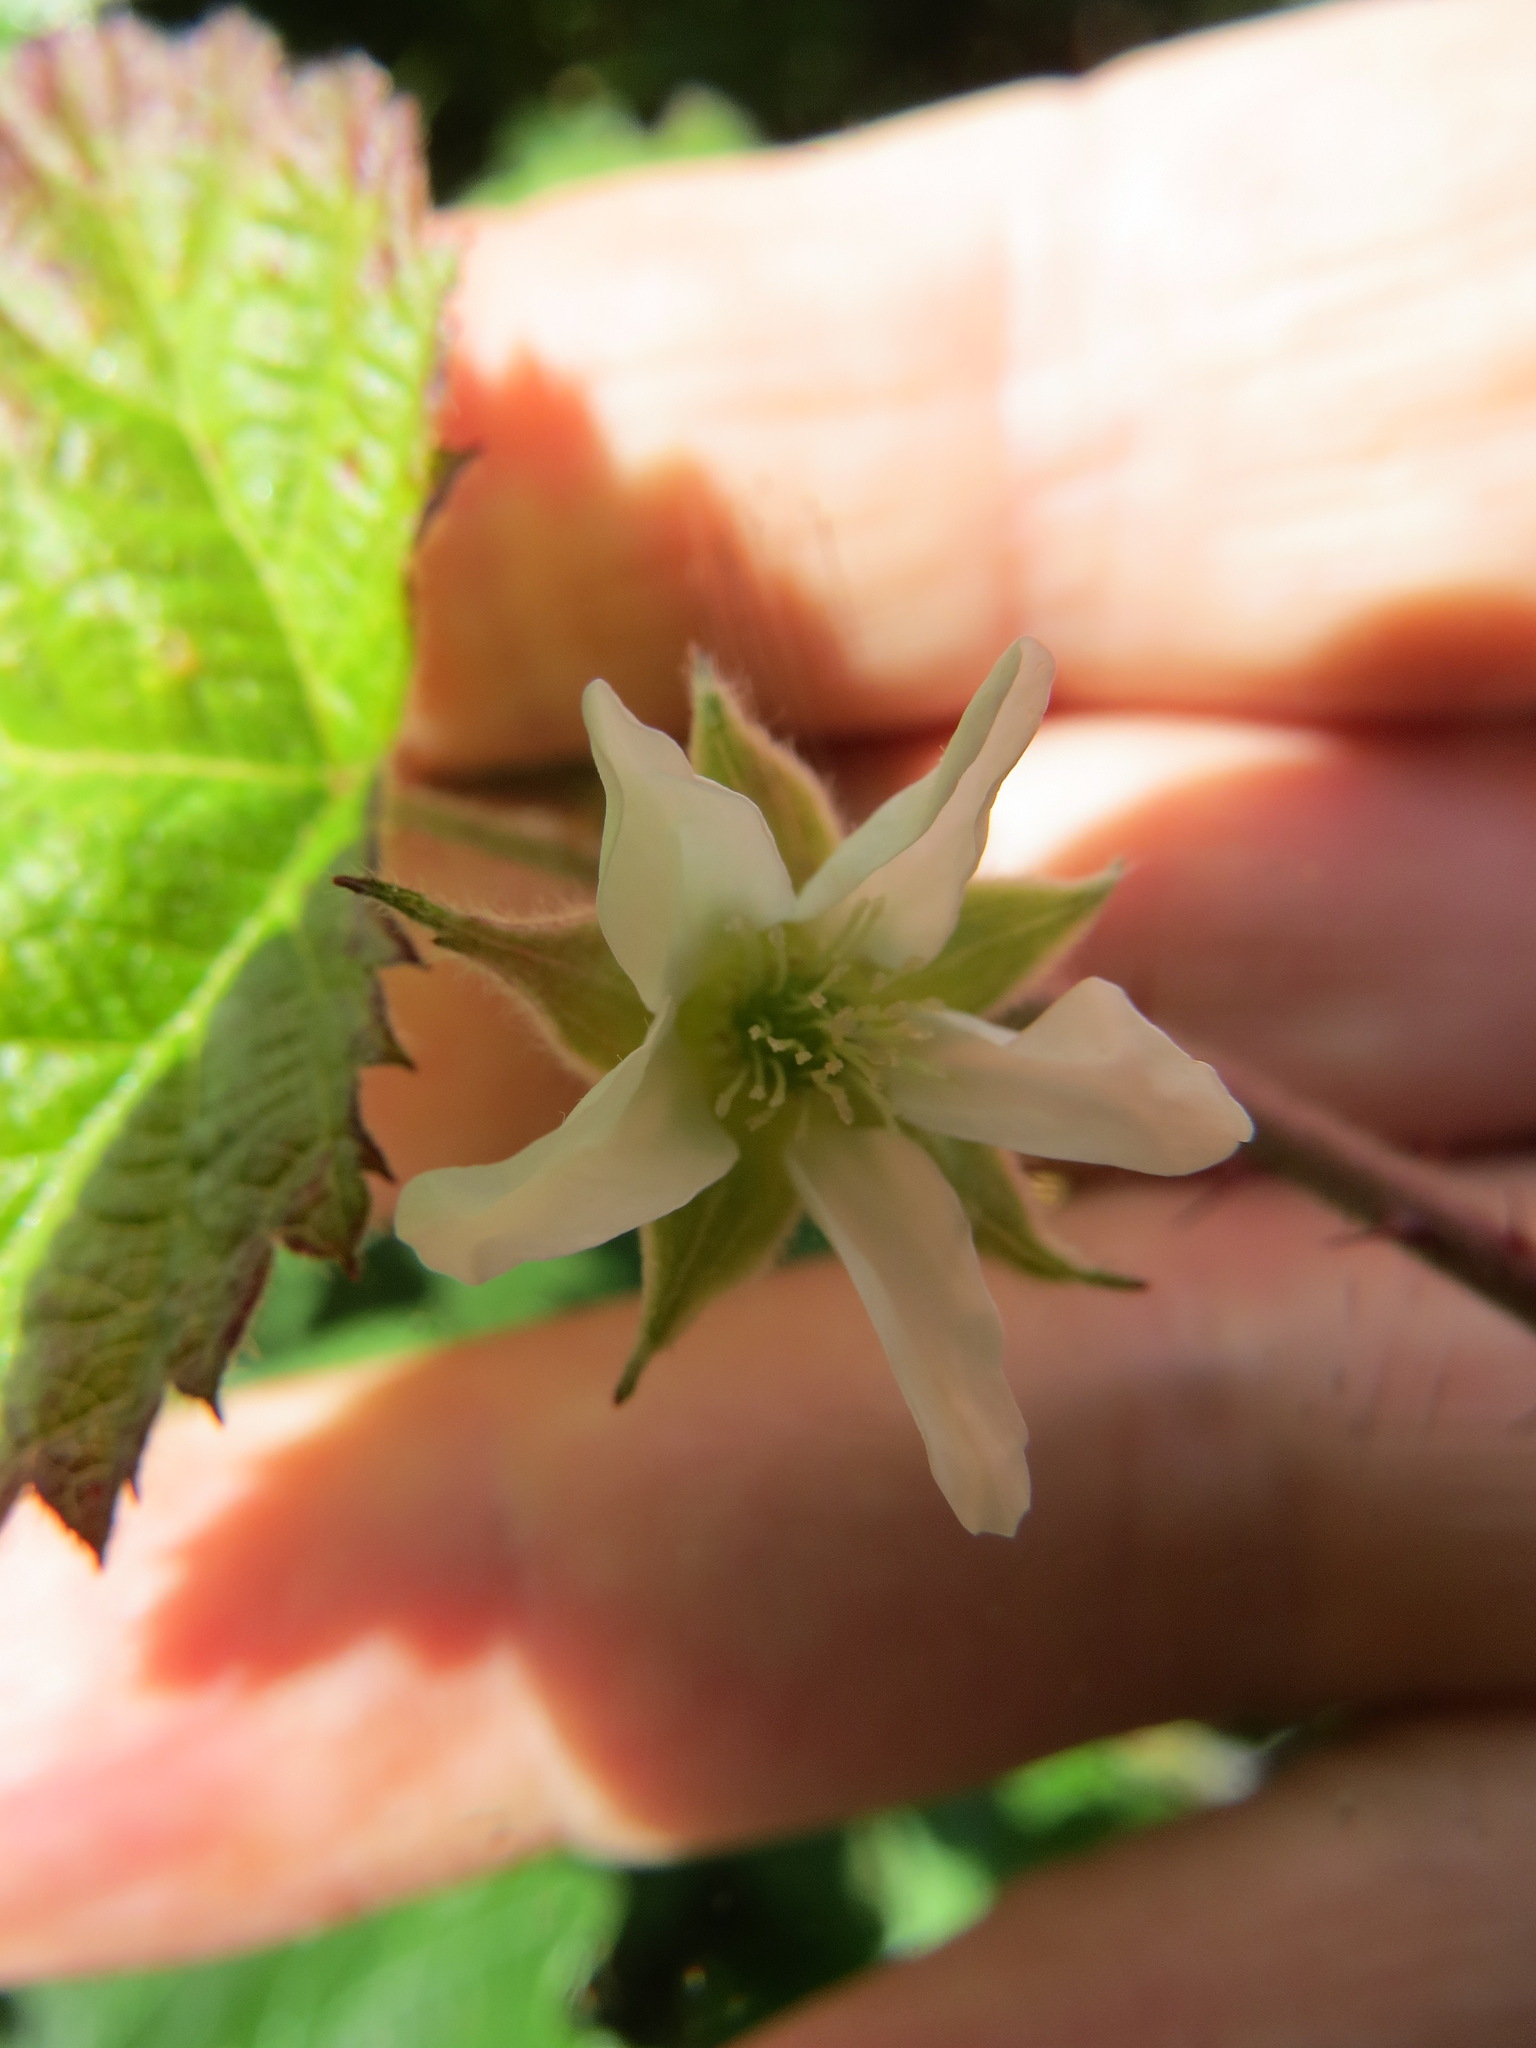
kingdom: Plantae
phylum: Tracheophyta
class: Magnoliopsida
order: Rosales
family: Rosaceae
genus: Rubus
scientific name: Rubus ursinus
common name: Pacific blackberry
